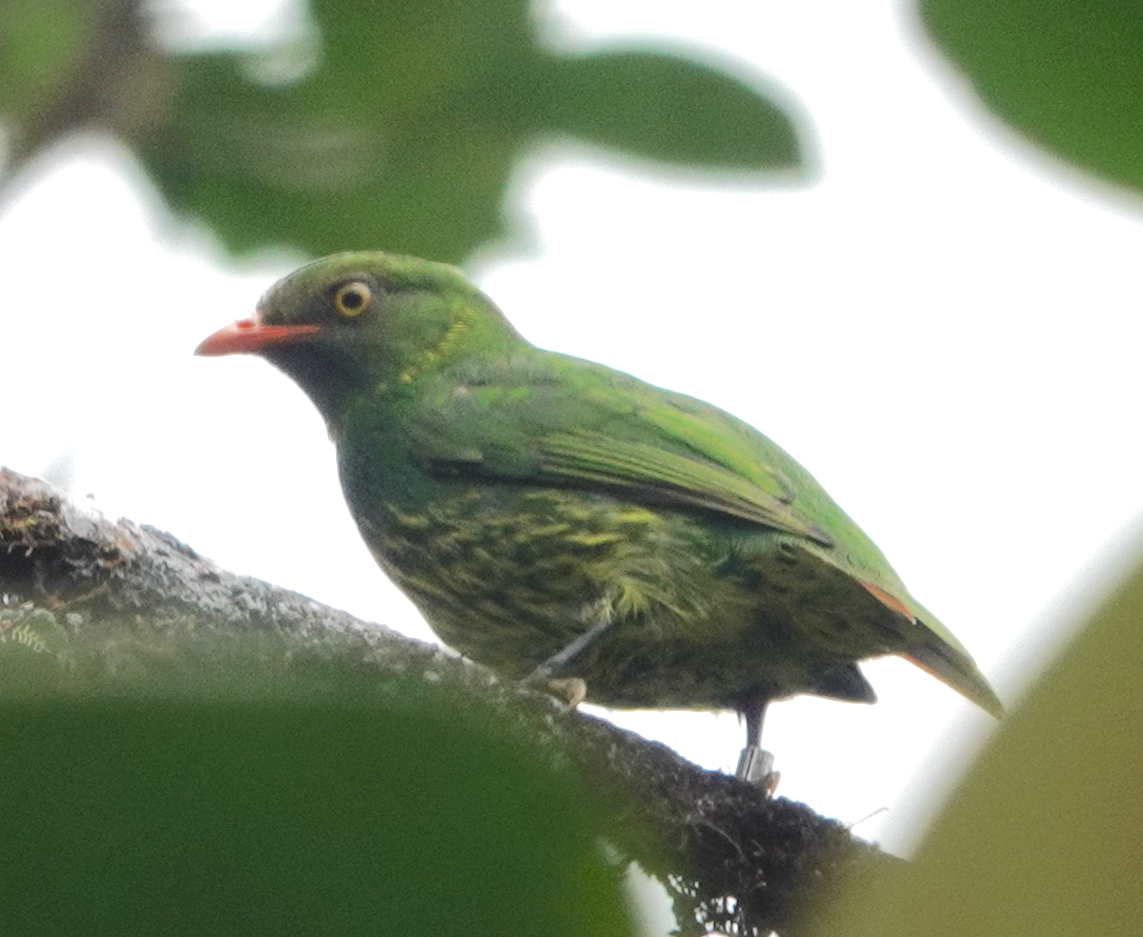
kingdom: Animalia
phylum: Chordata
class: Aves
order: Passeriformes
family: Cotingidae
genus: Pipreola
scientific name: Pipreola jucunda
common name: Orange-breasted fruiteater
